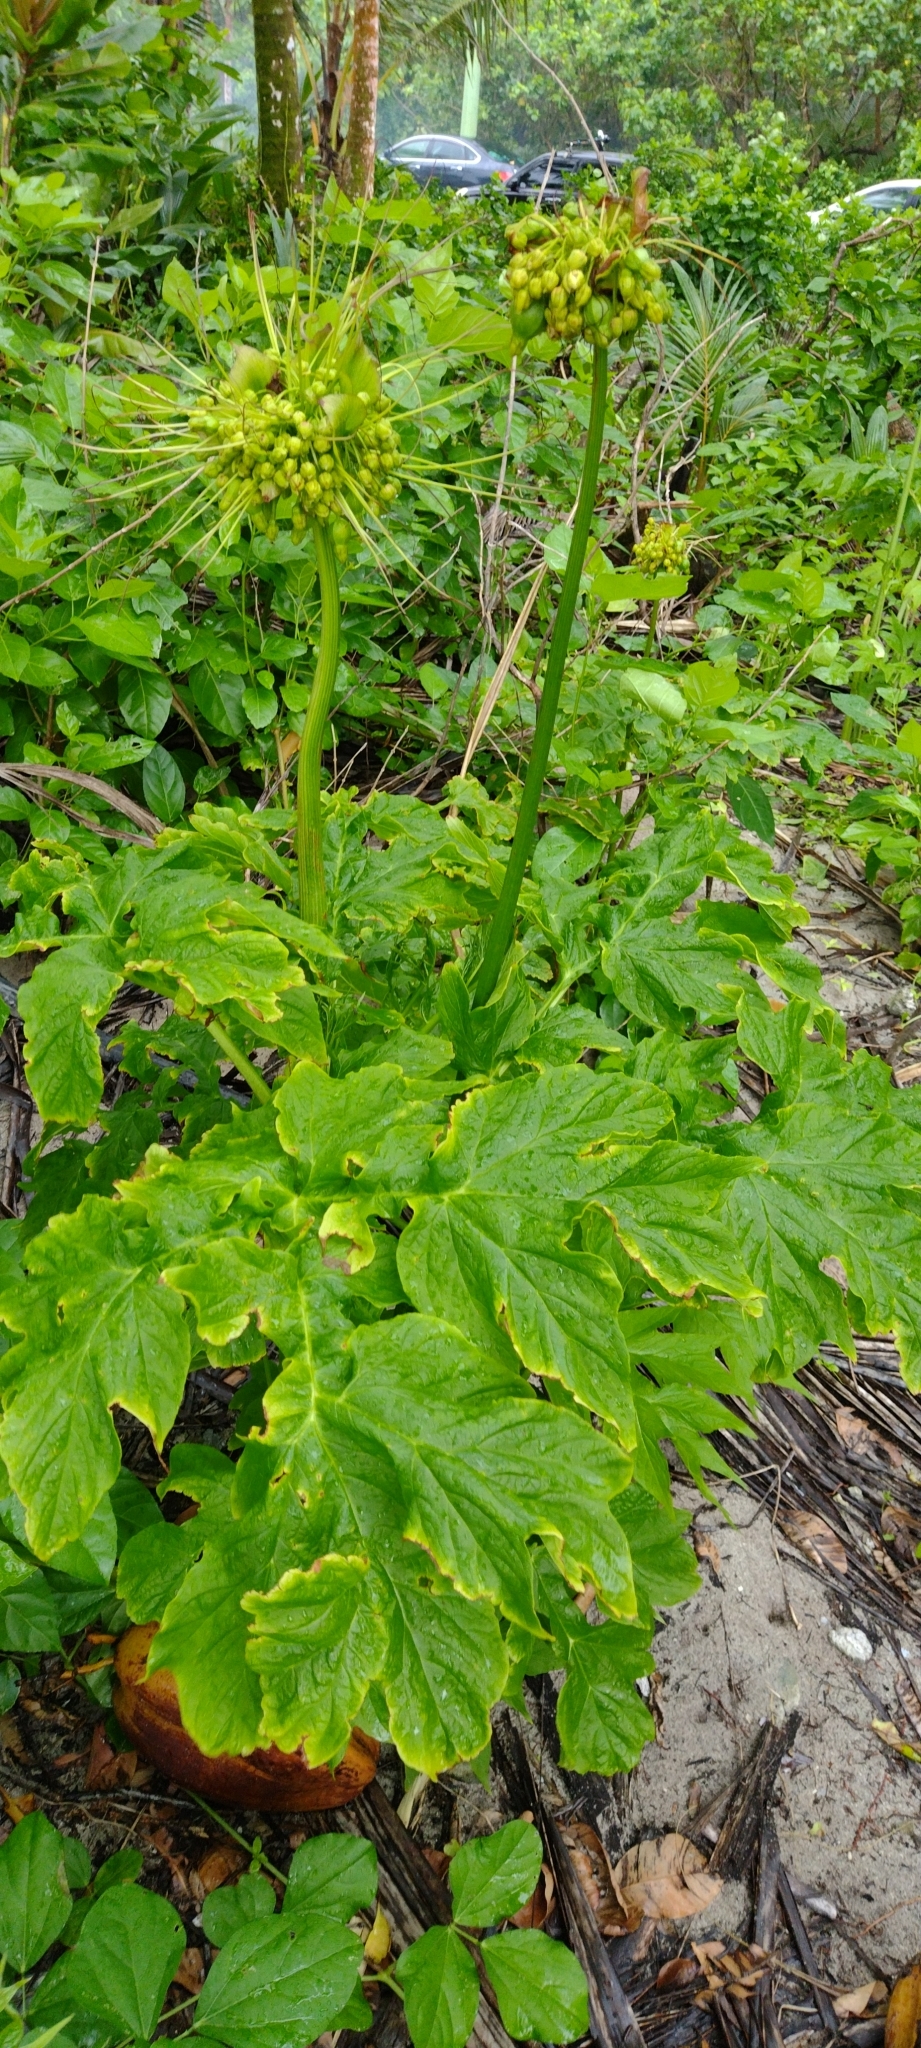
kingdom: Plantae
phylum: Tracheophyta
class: Liliopsida
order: Dioscoreales
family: Dioscoreaceae
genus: Tacca
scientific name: Tacca leontopetaloides
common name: Arrowroot
